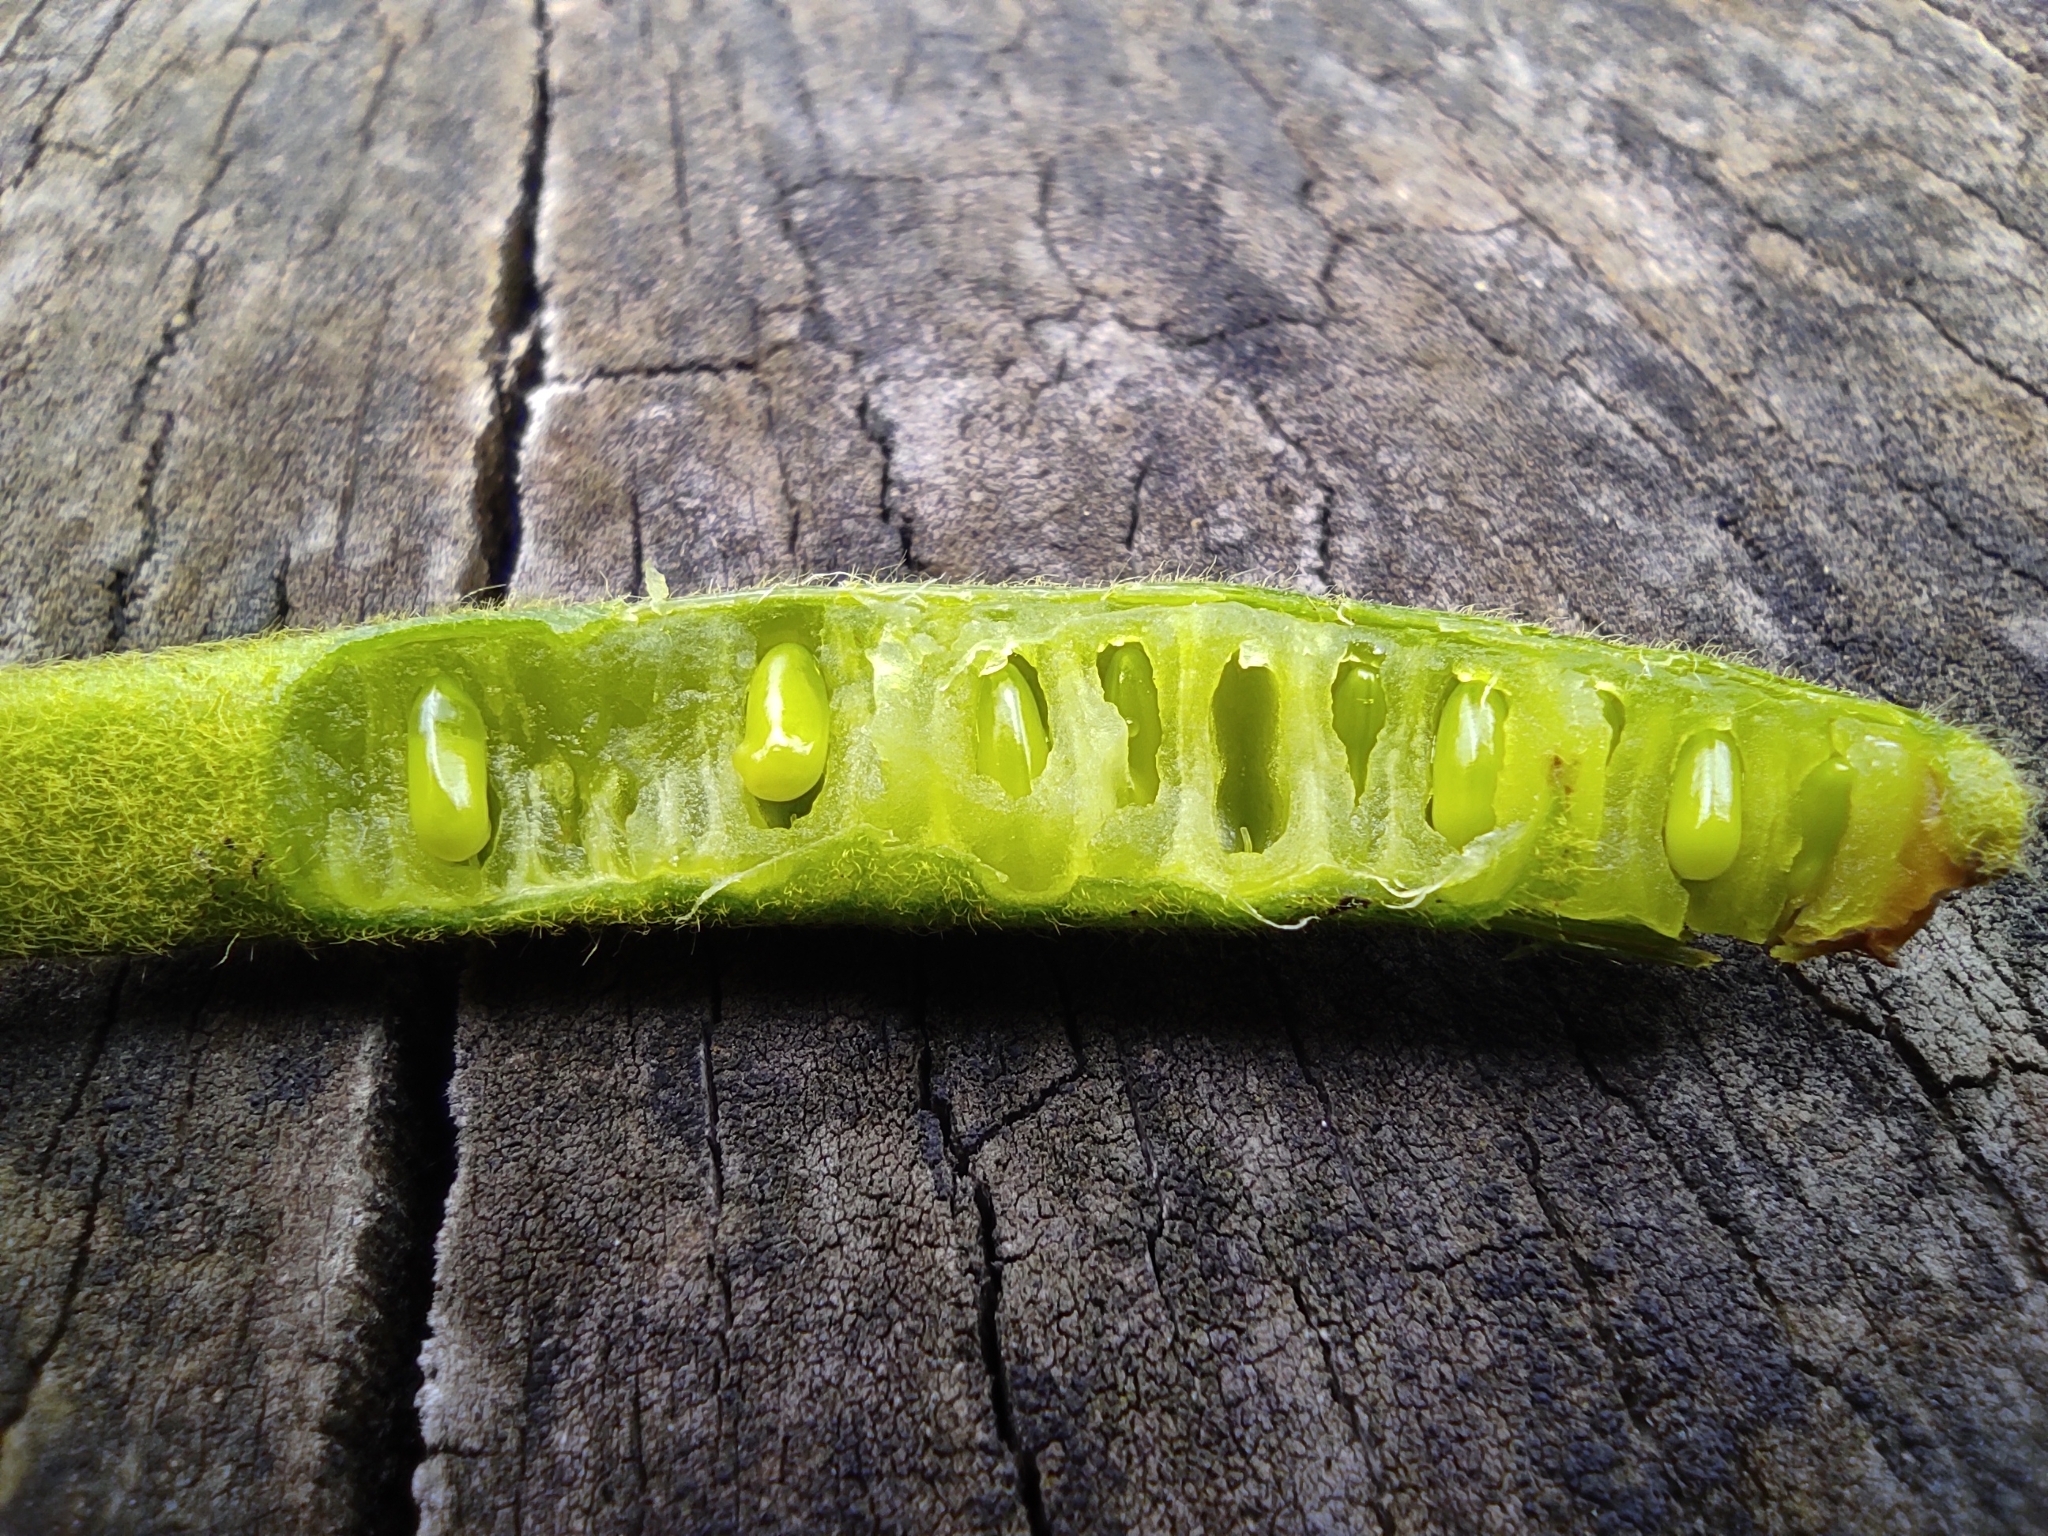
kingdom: Plantae
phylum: Tracheophyta
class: Magnoliopsida
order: Fabales
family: Fabaceae
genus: Senna
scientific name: Senna multiglandulosa
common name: Glandular senna
